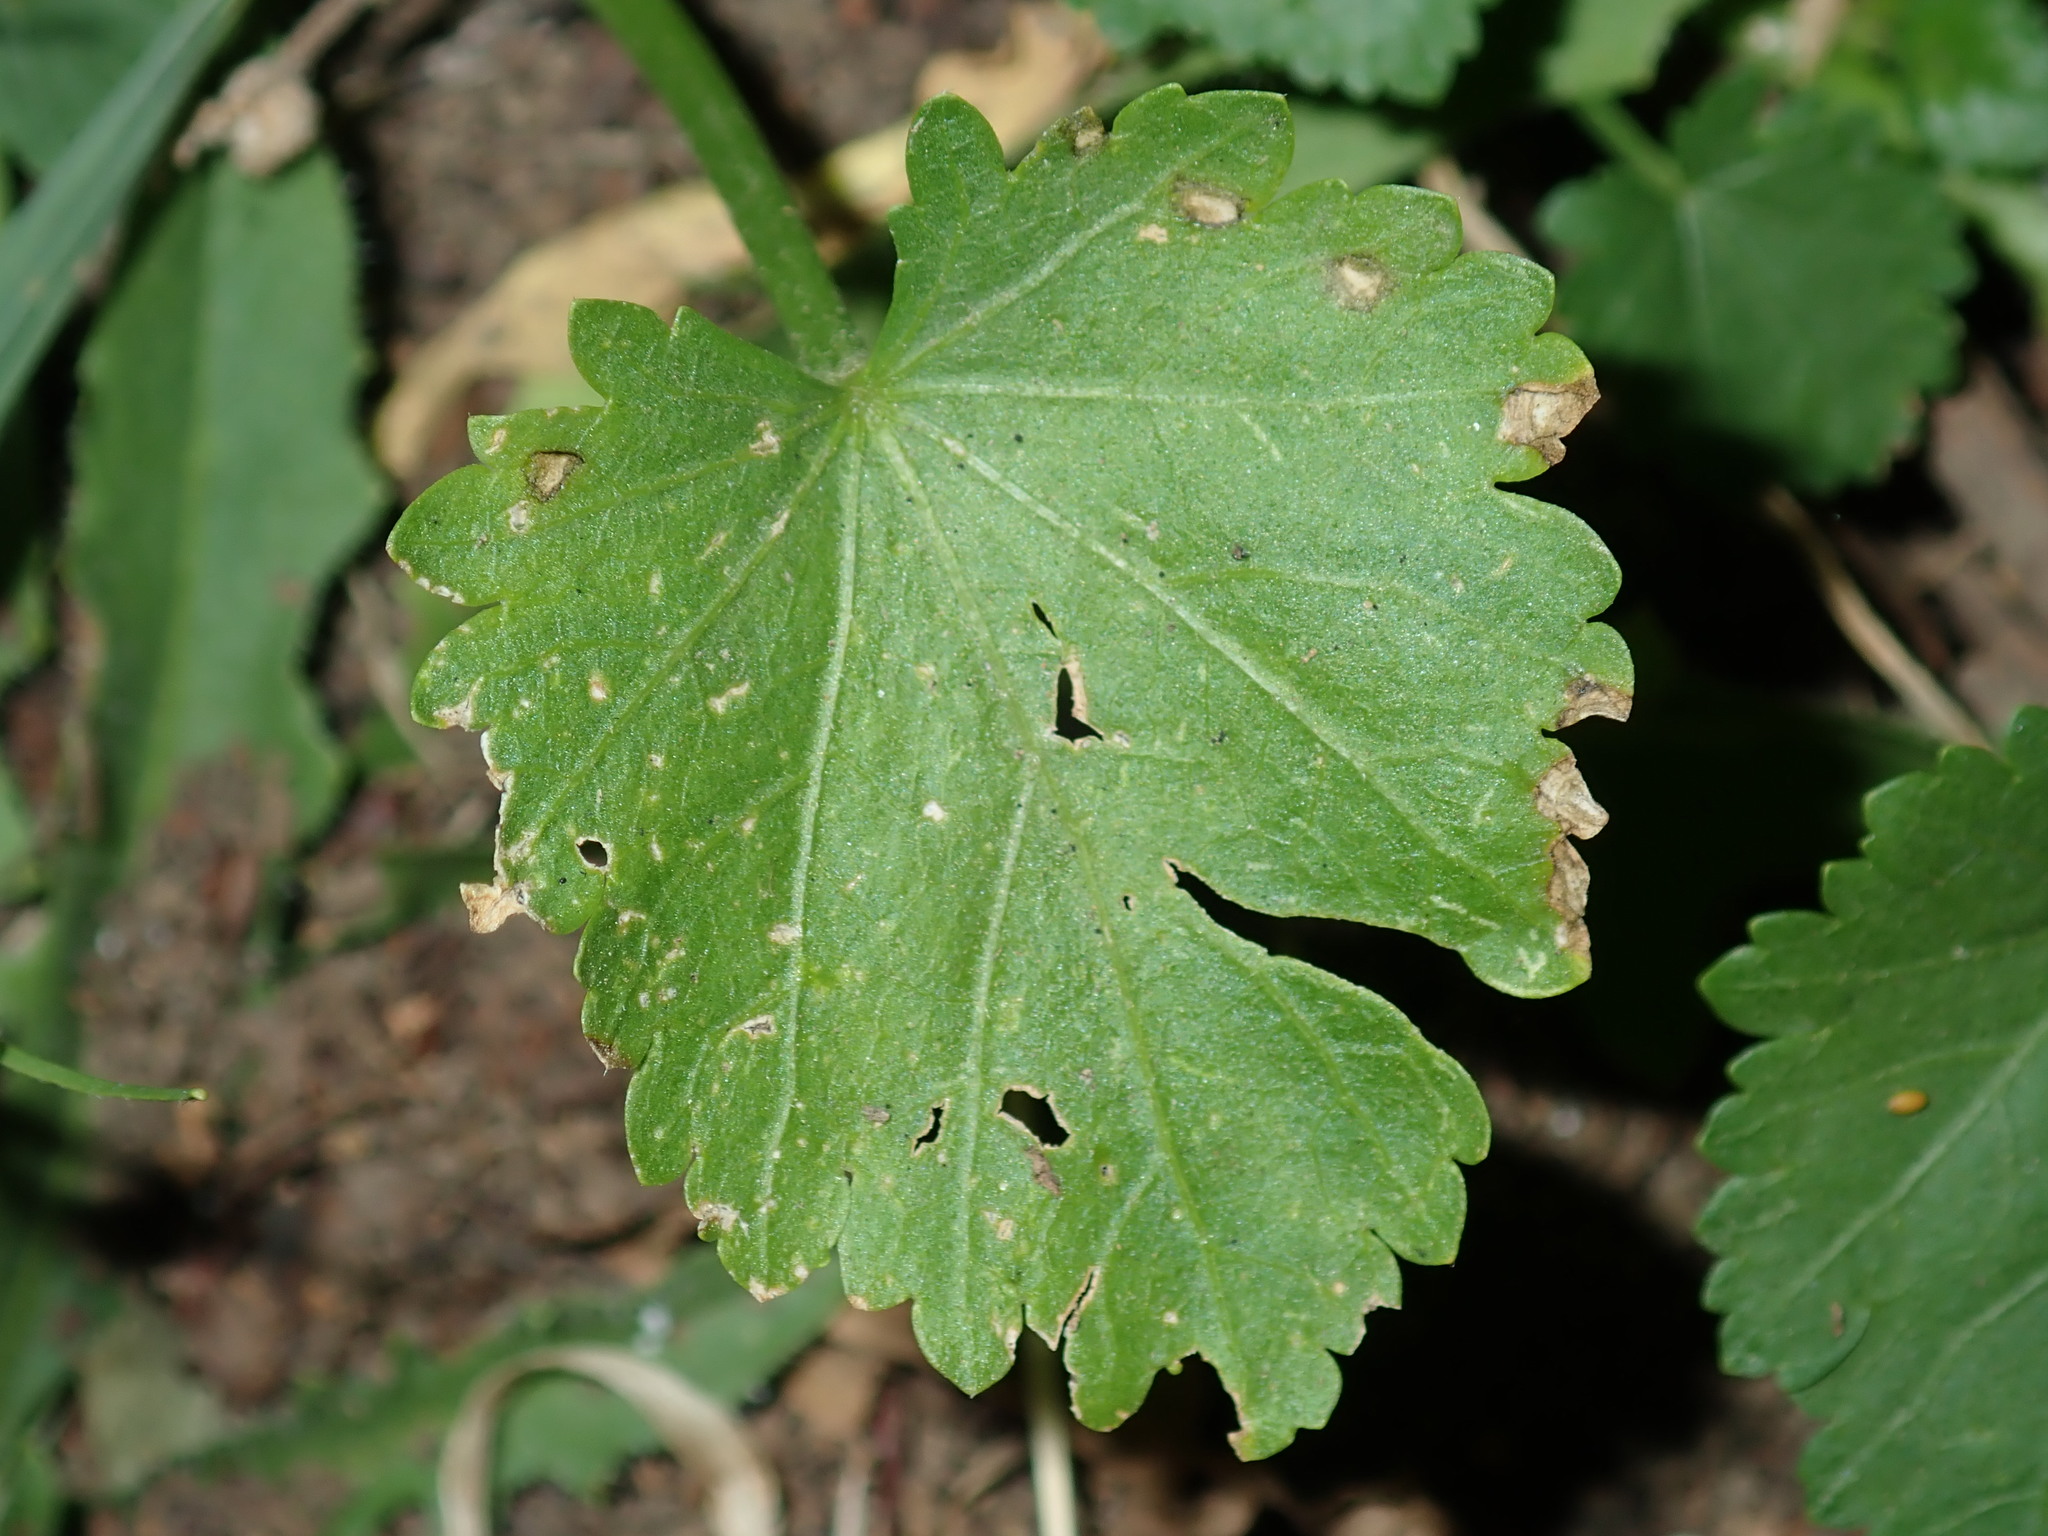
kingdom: Plantae
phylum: Tracheophyta
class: Magnoliopsida
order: Malvales
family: Malvaceae
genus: Modiola
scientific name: Modiola caroliniana
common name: Carolina bristlemallow
